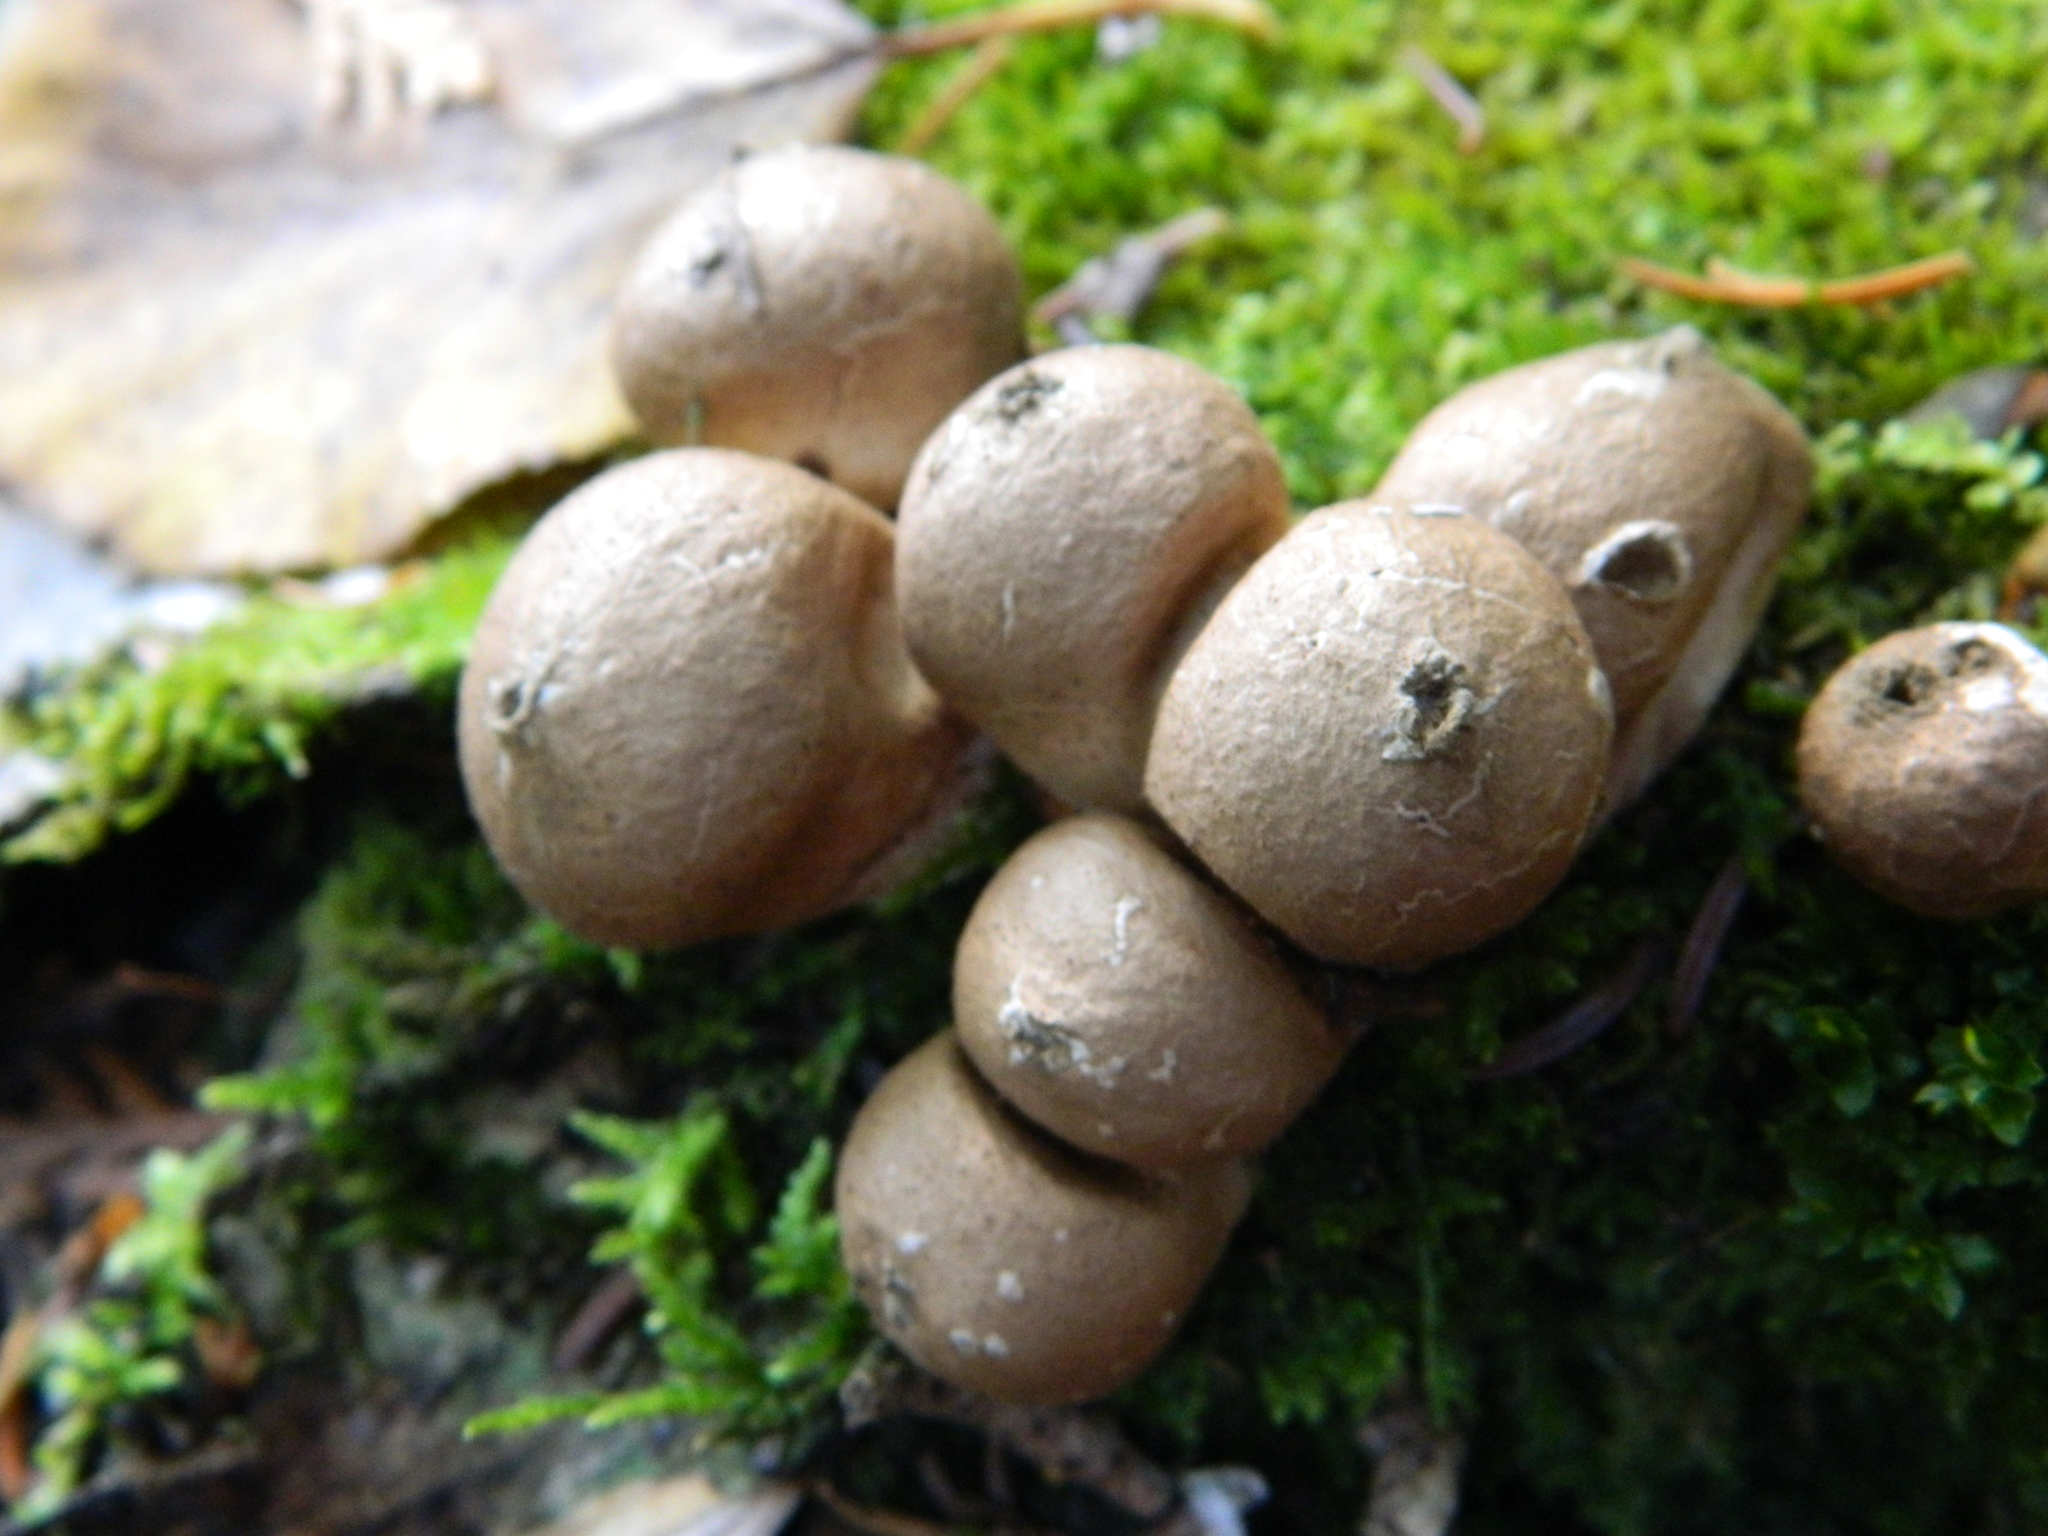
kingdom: Fungi
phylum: Basidiomycota
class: Agaricomycetes
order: Agaricales
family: Lycoperdaceae
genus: Apioperdon
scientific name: Apioperdon pyriforme
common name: Pear-shaped puffball
